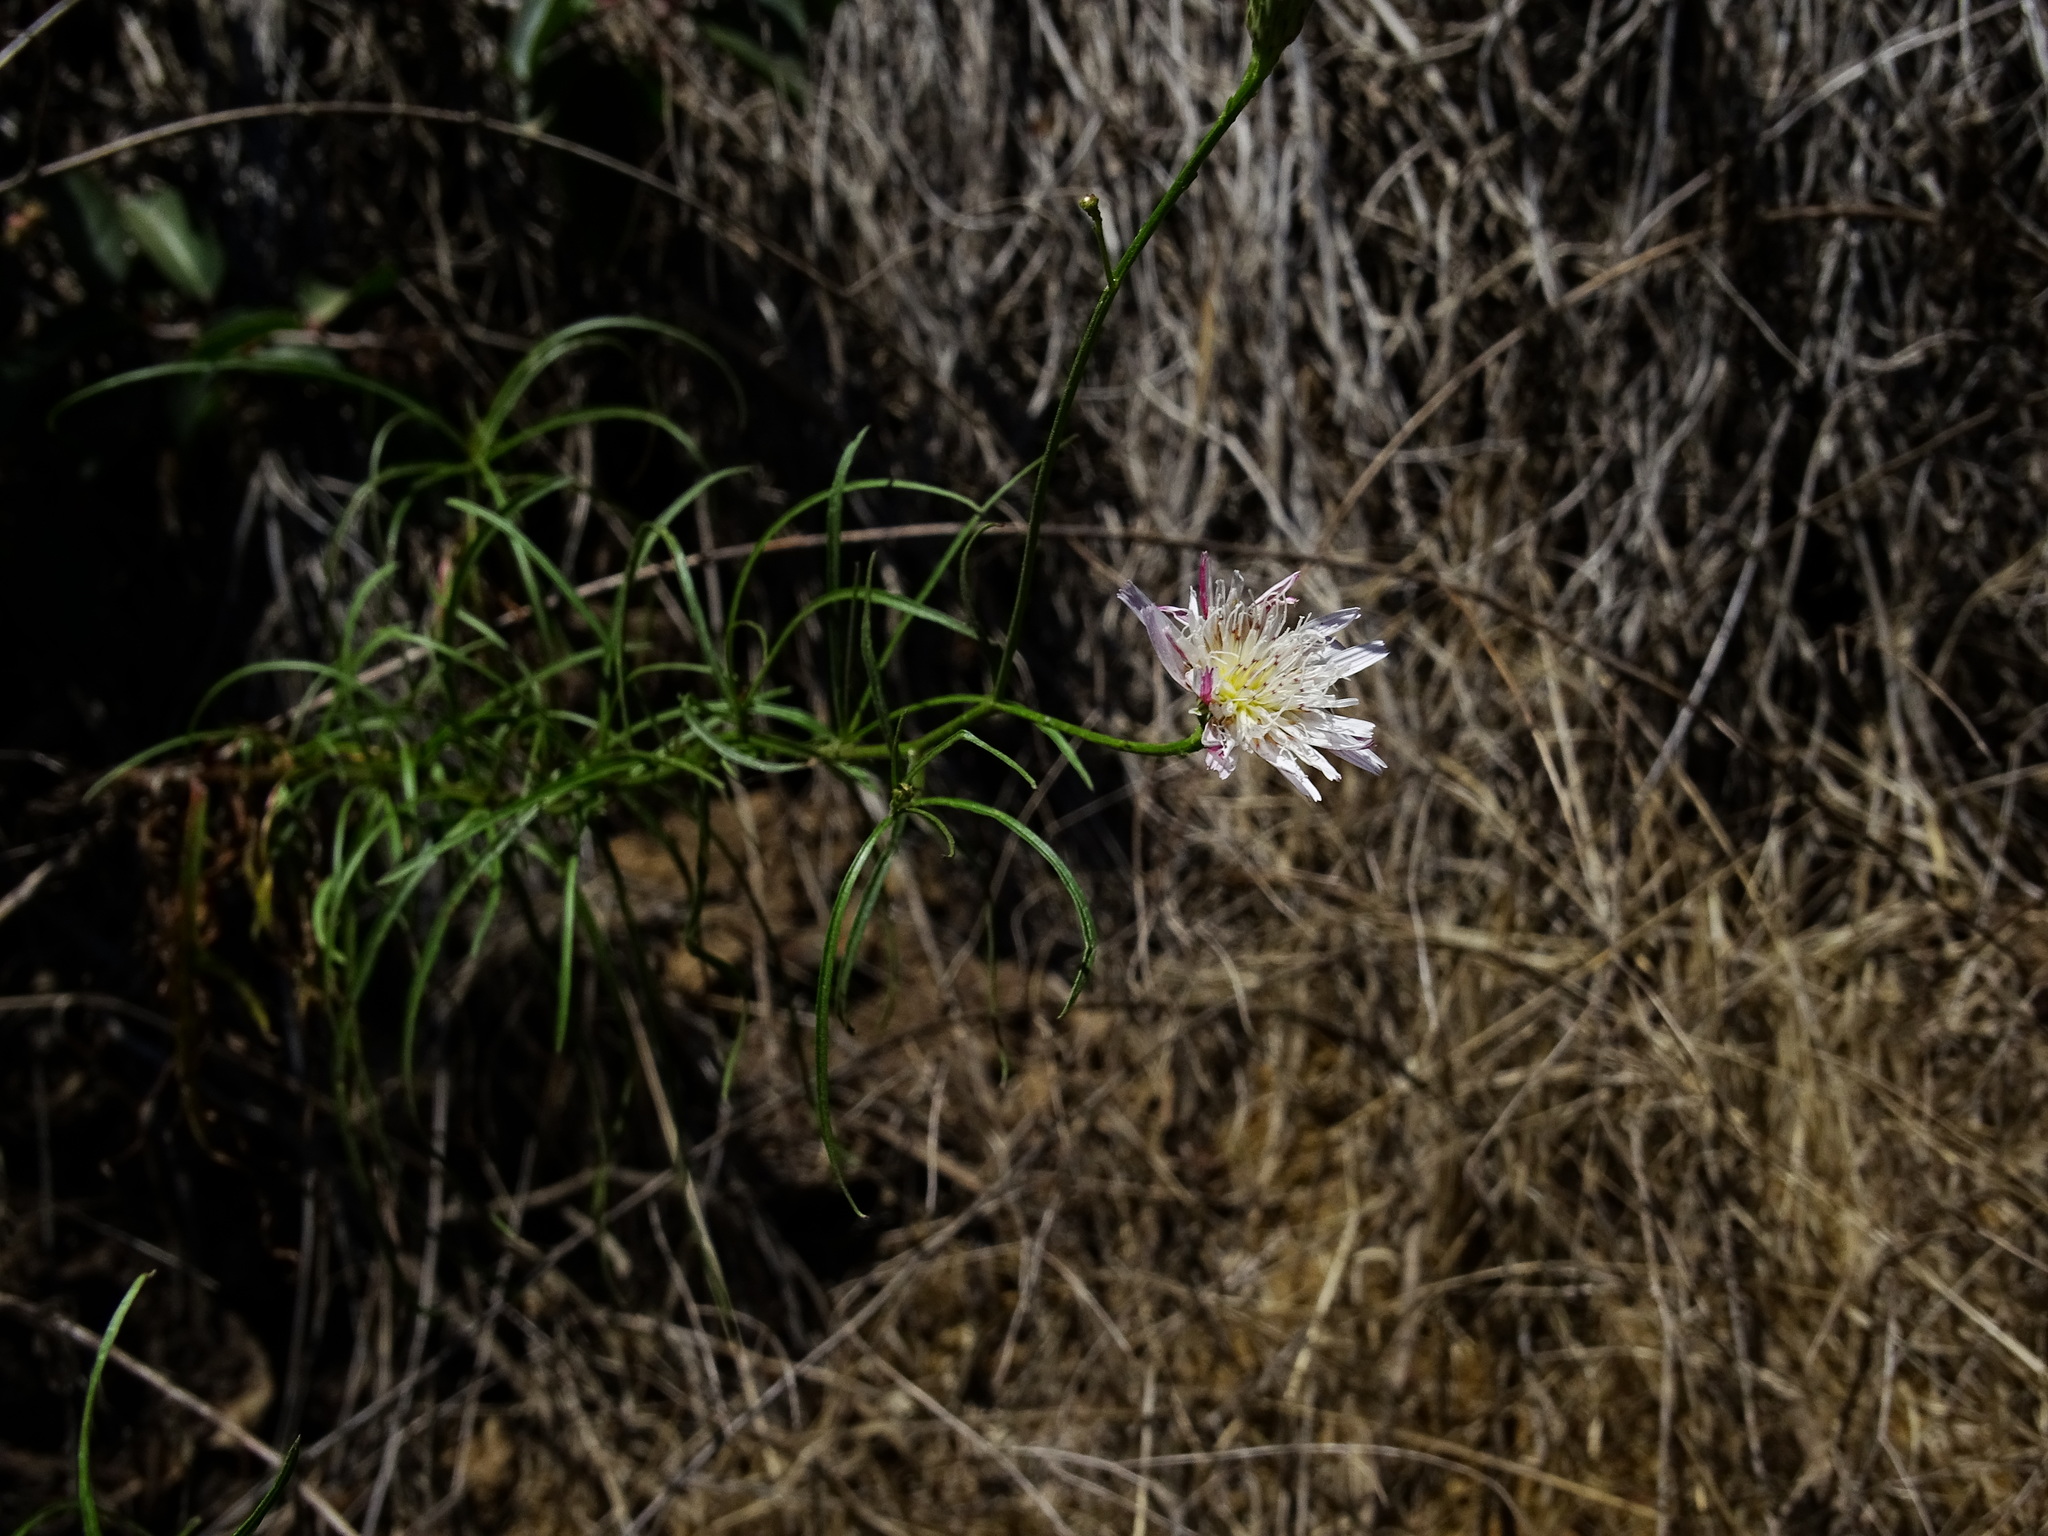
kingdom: Plantae
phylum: Tracheophyta
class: Magnoliopsida
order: Asterales
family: Asteraceae
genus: Malacothrix
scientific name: Malacothrix saxatilis
